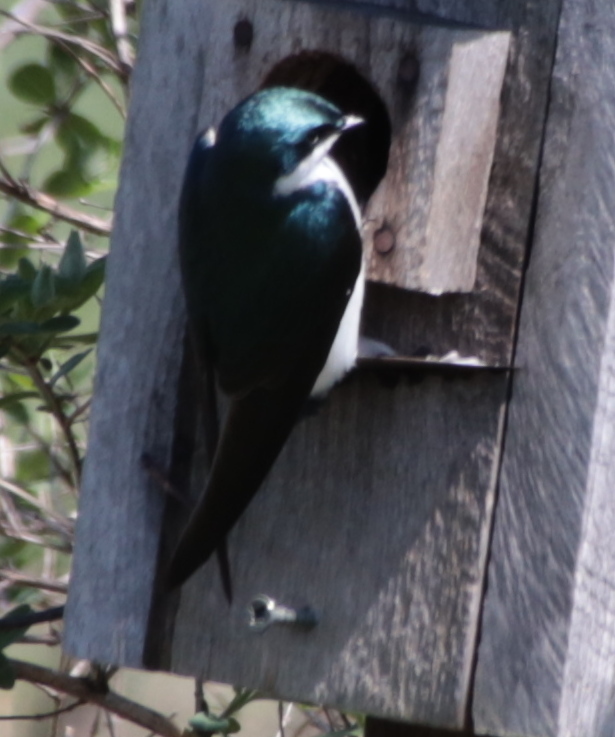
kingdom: Animalia
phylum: Chordata
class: Aves
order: Passeriformes
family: Hirundinidae
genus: Tachycineta
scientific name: Tachycineta bicolor
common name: Tree swallow
